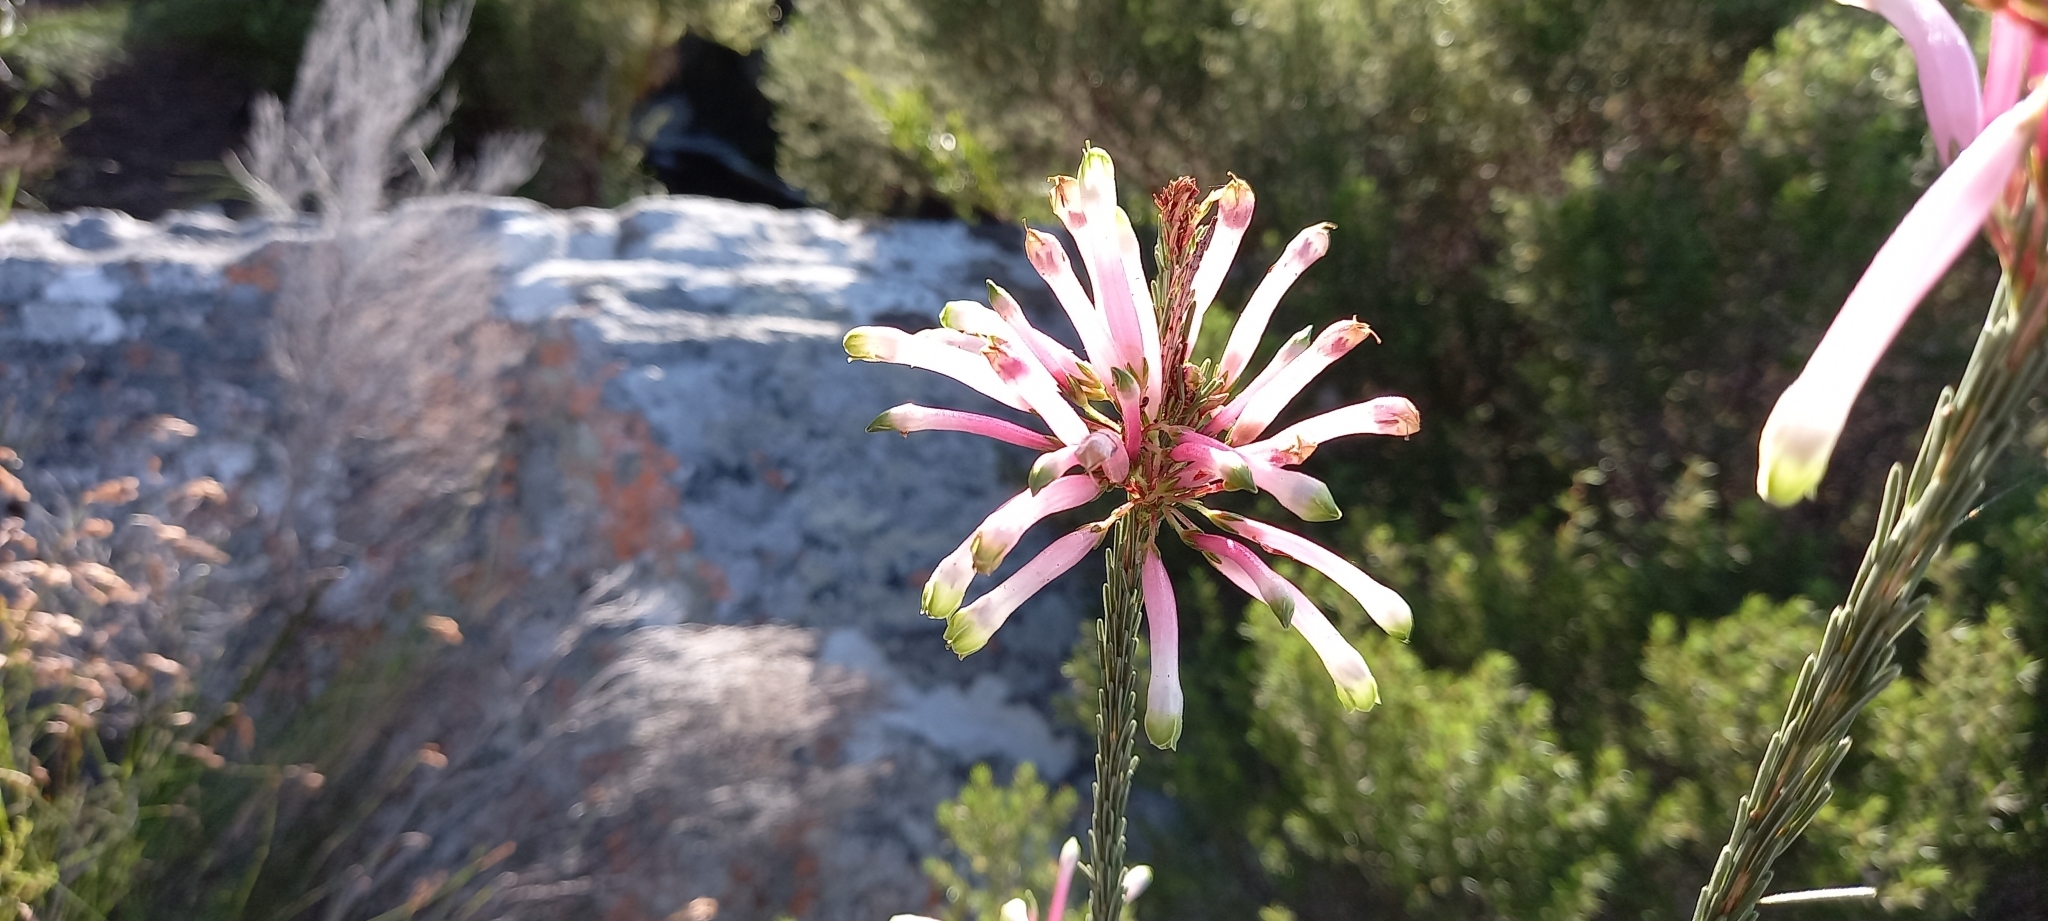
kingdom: Plantae
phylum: Tracheophyta
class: Magnoliopsida
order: Ericales
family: Ericaceae
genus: Erica
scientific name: Erica fascicularis
